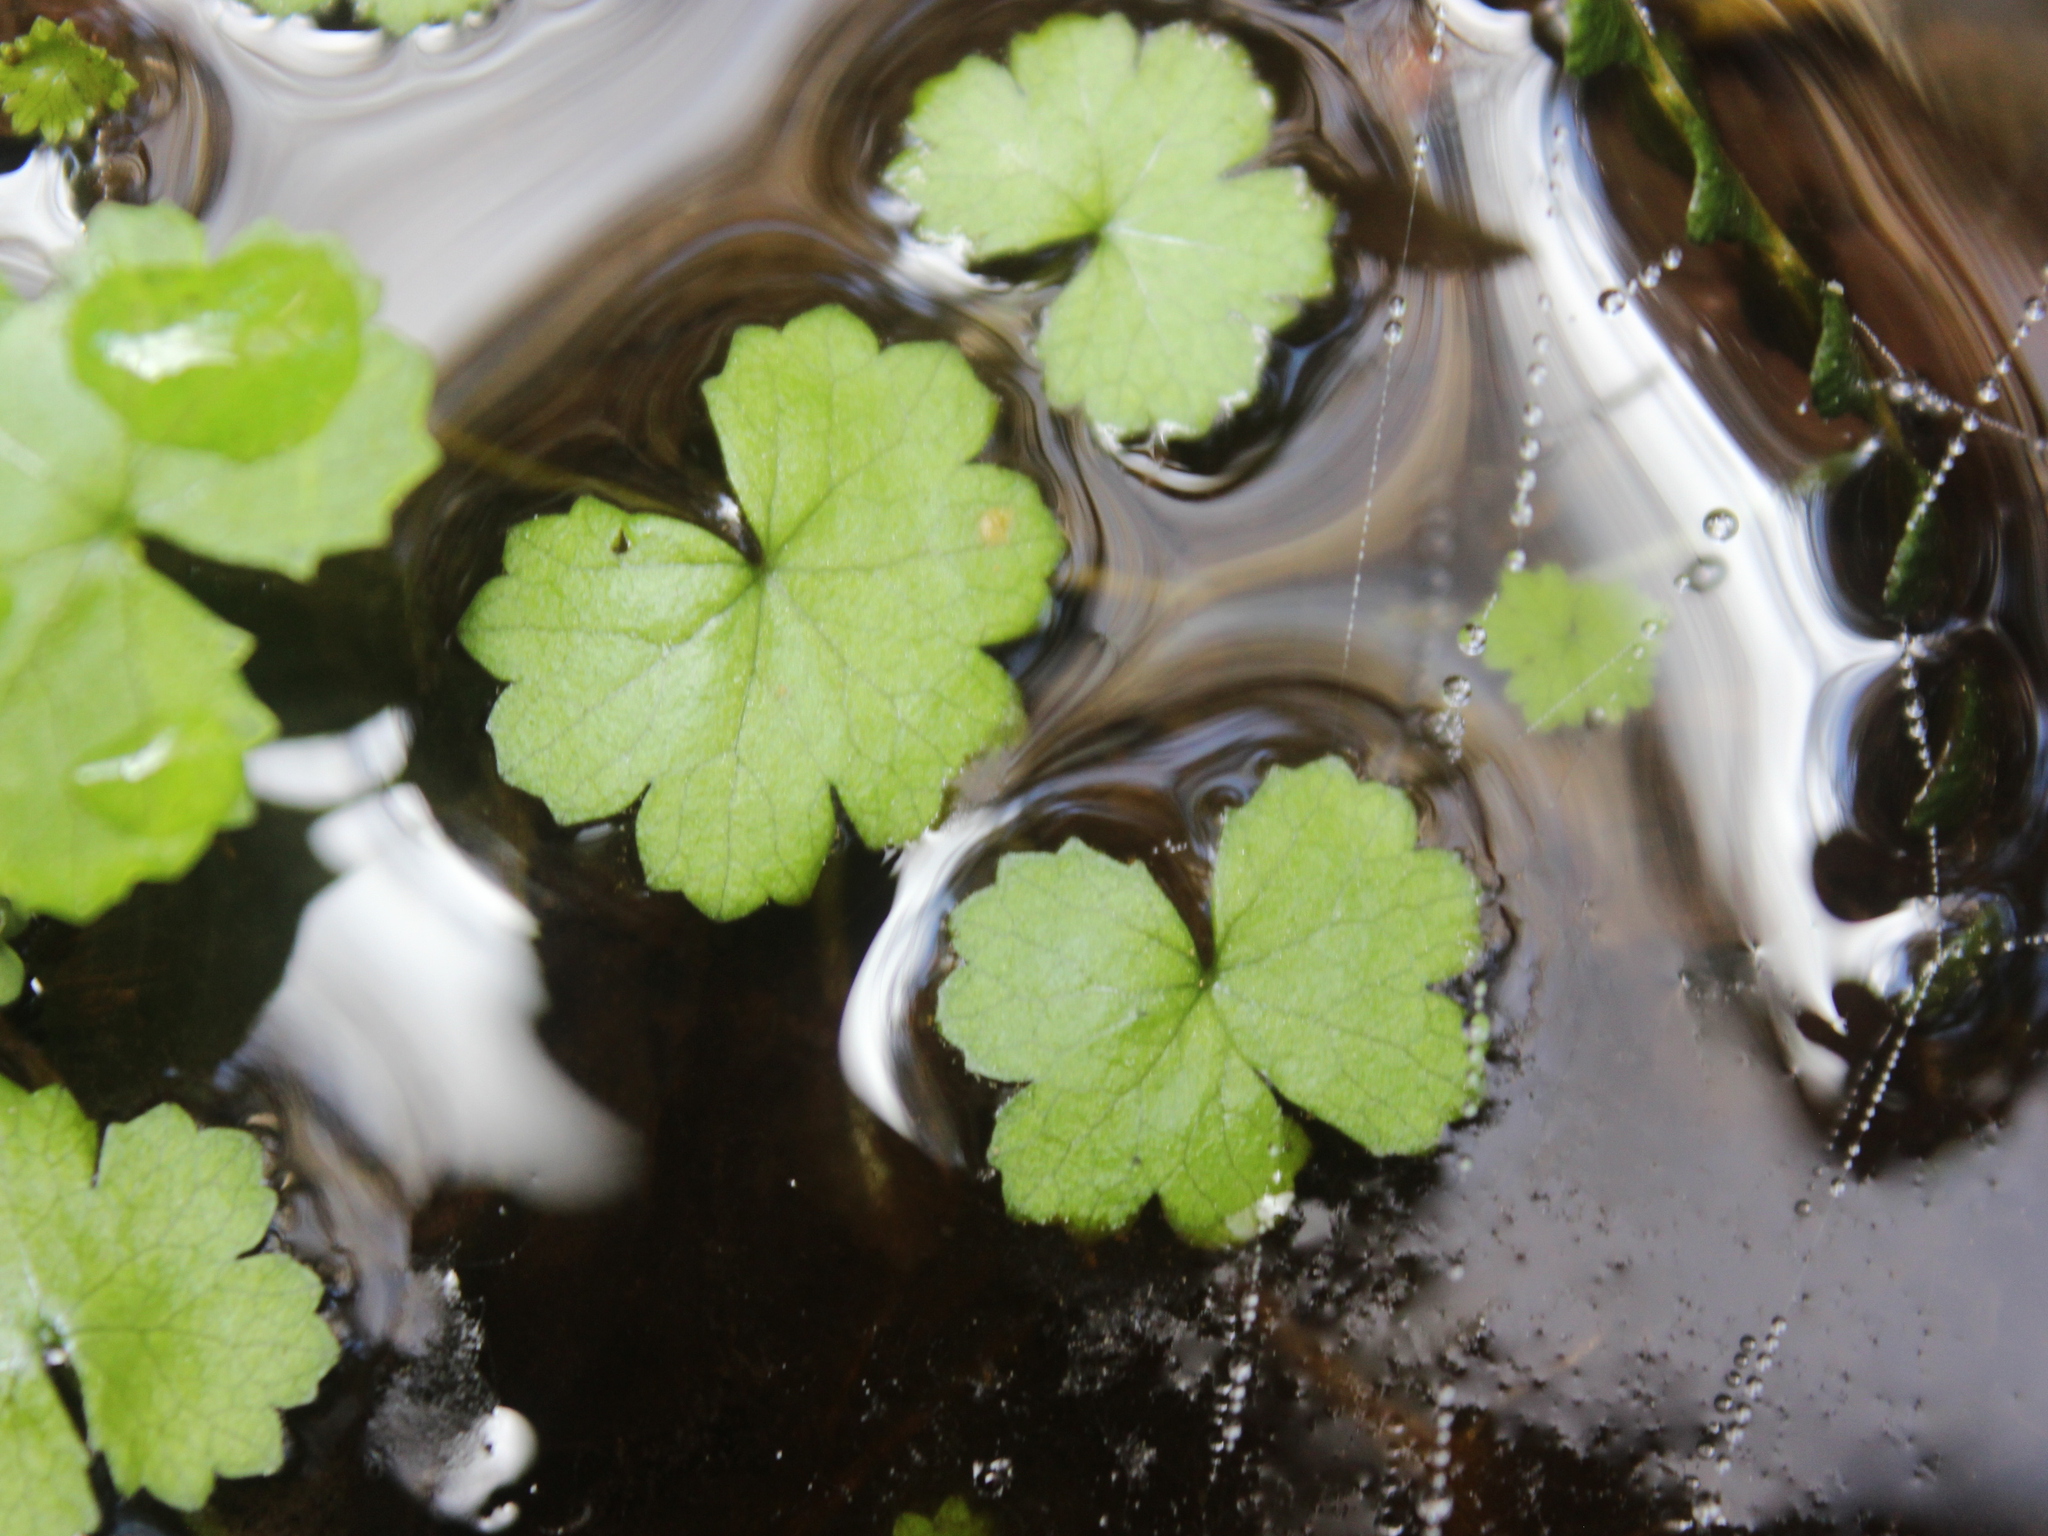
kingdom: Plantae
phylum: Tracheophyta
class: Magnoliopsida
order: Apiales
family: Araliaceae
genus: Hydrocotyle
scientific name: Hydrocotyle novae-zeelandiae
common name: New zealand pennywort
